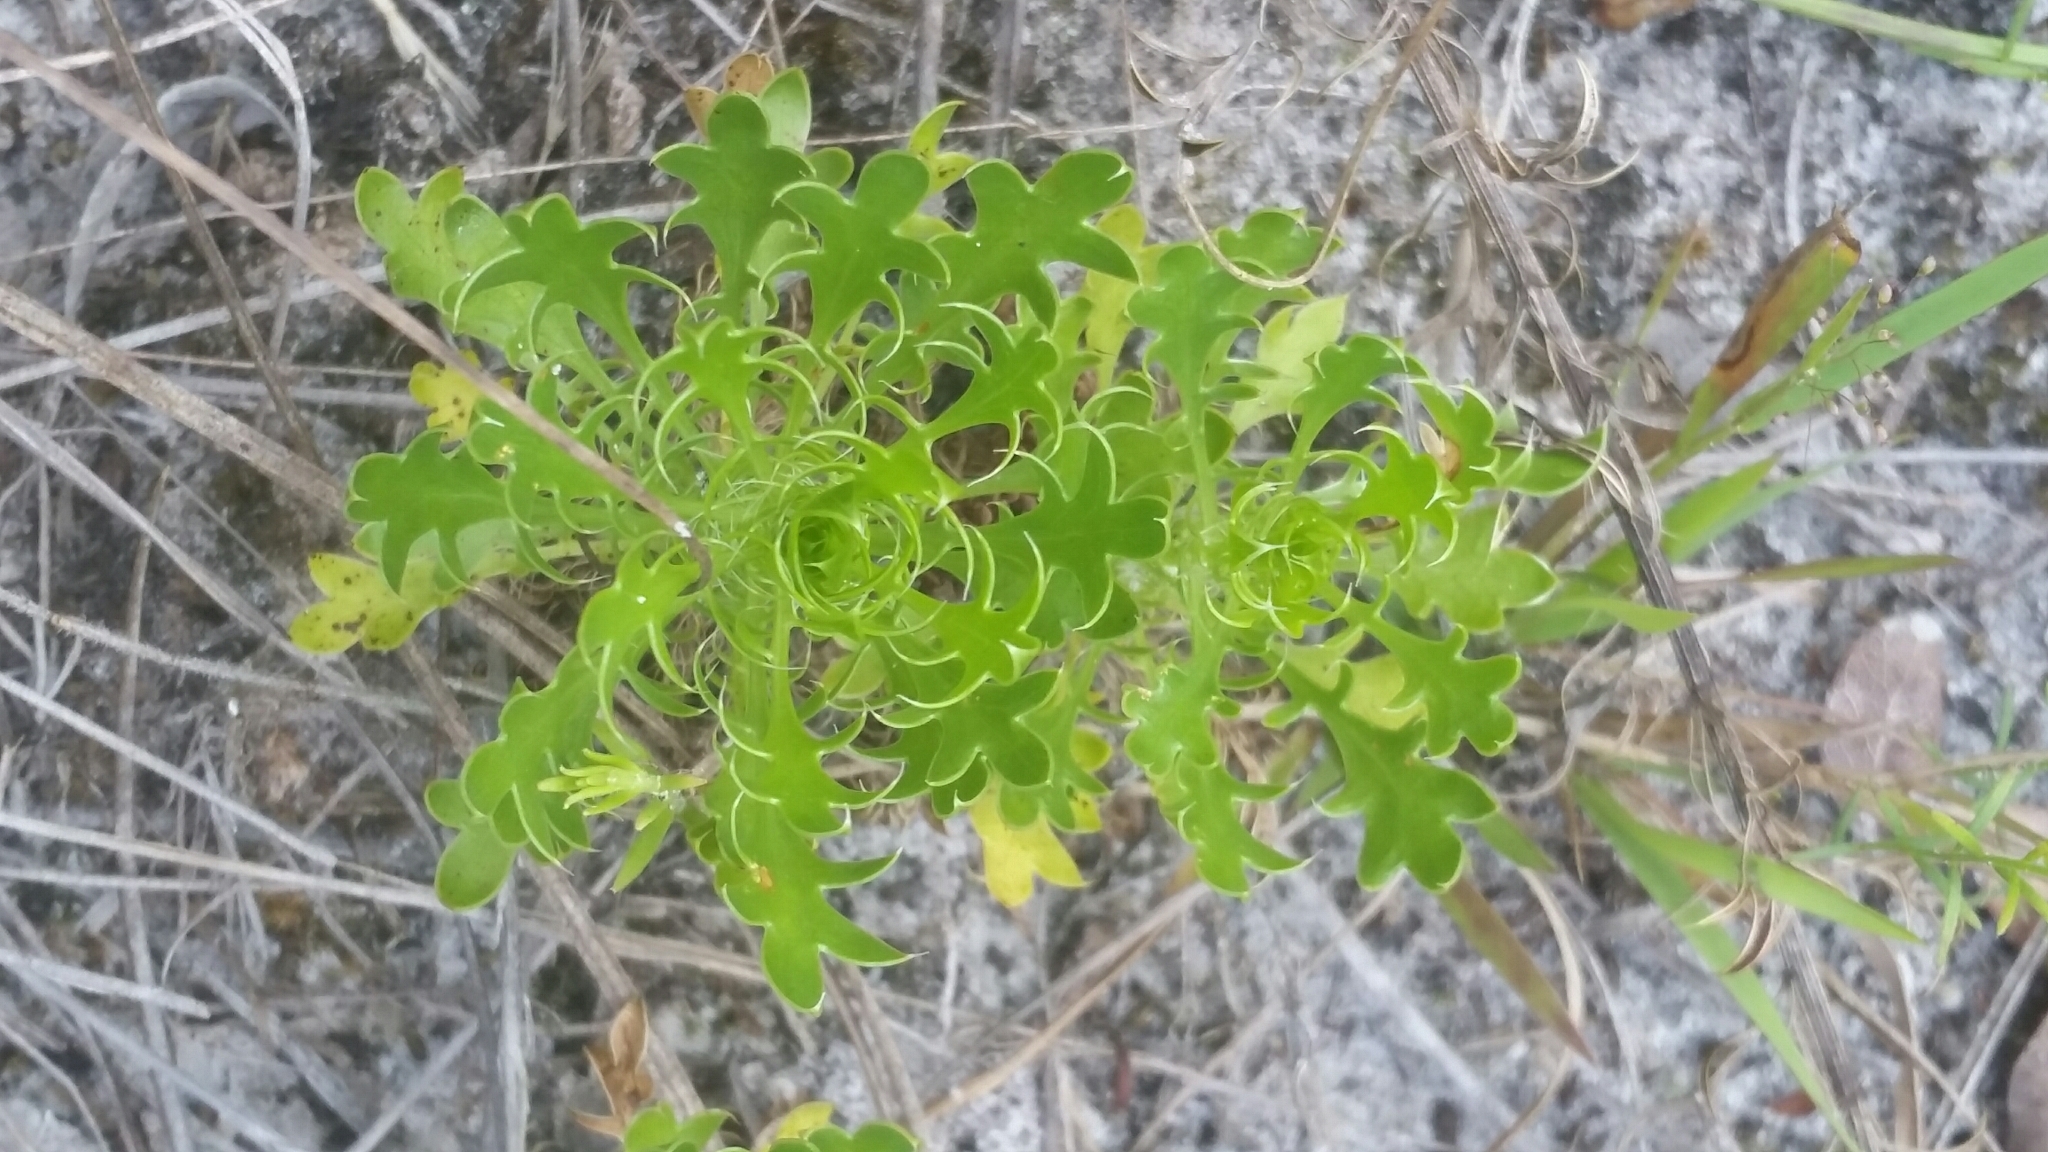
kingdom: Plantae
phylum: Tracheophyta
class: Magnoliopsida
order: Apiales
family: Apiaceae
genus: Eryngium
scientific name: Eryngium aromaticum
